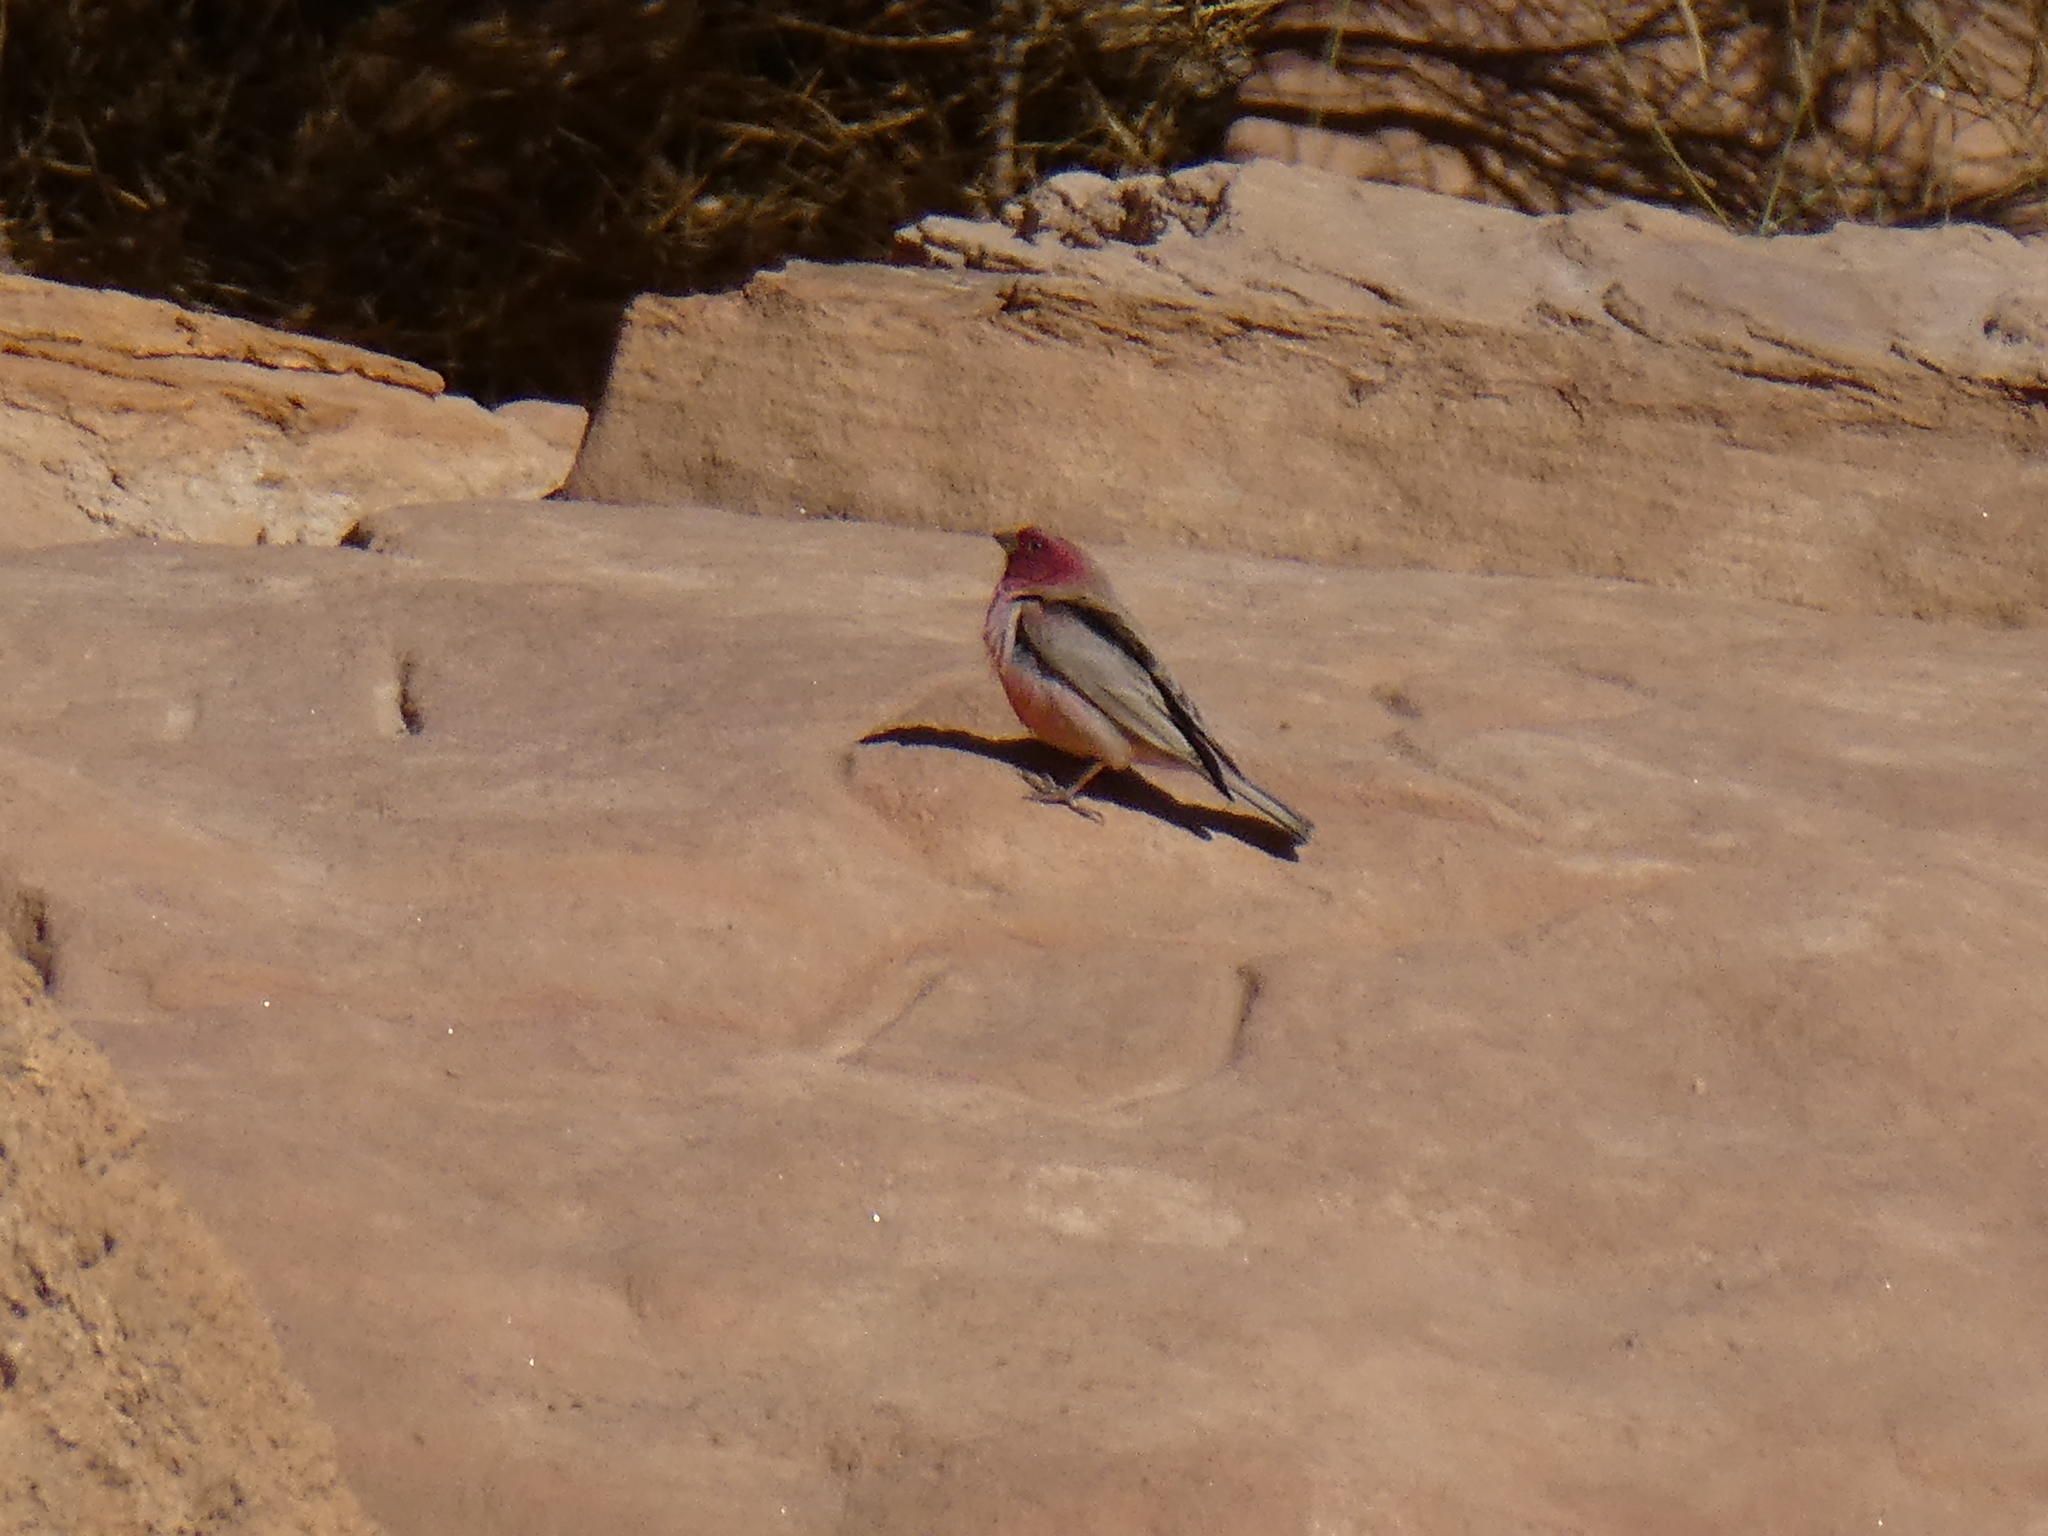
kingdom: Animalia
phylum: Chordata
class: Aves
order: Passeriformes
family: Fringillidae
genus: Carpodacus
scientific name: Carpodacus synoicus
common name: Sinai rosefinch
